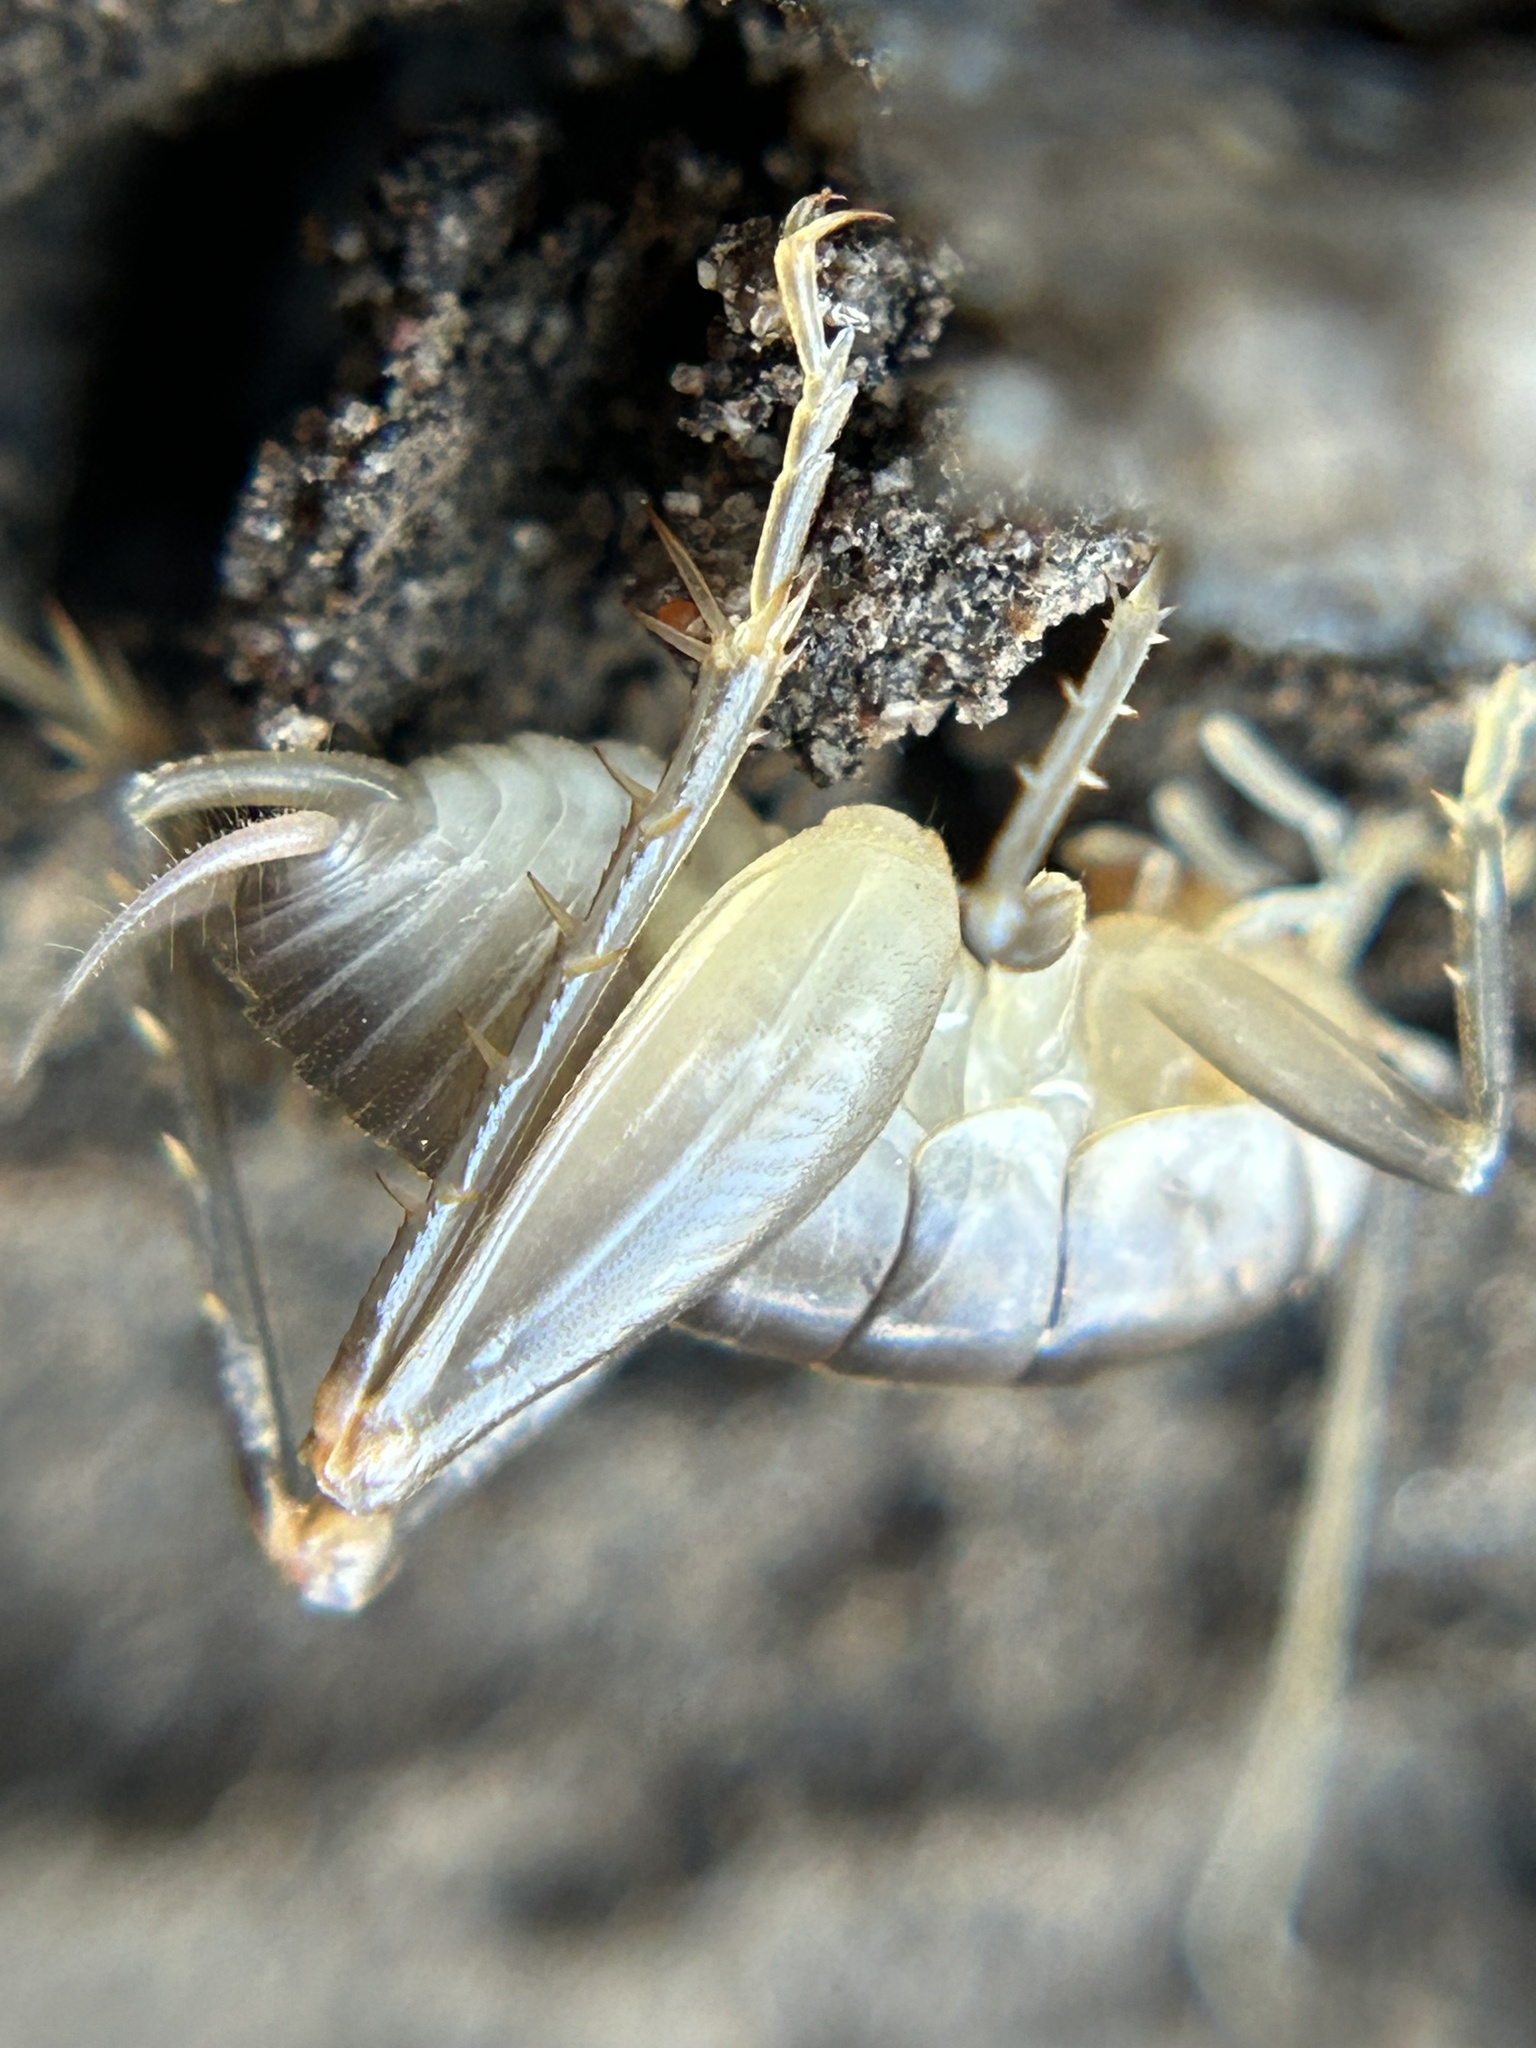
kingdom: Animalia
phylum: Arthropoda
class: Insecta
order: Orthoptera
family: Rhaphidophoridae
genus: Ceuthophilus
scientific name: Ceuthophilus californianus
